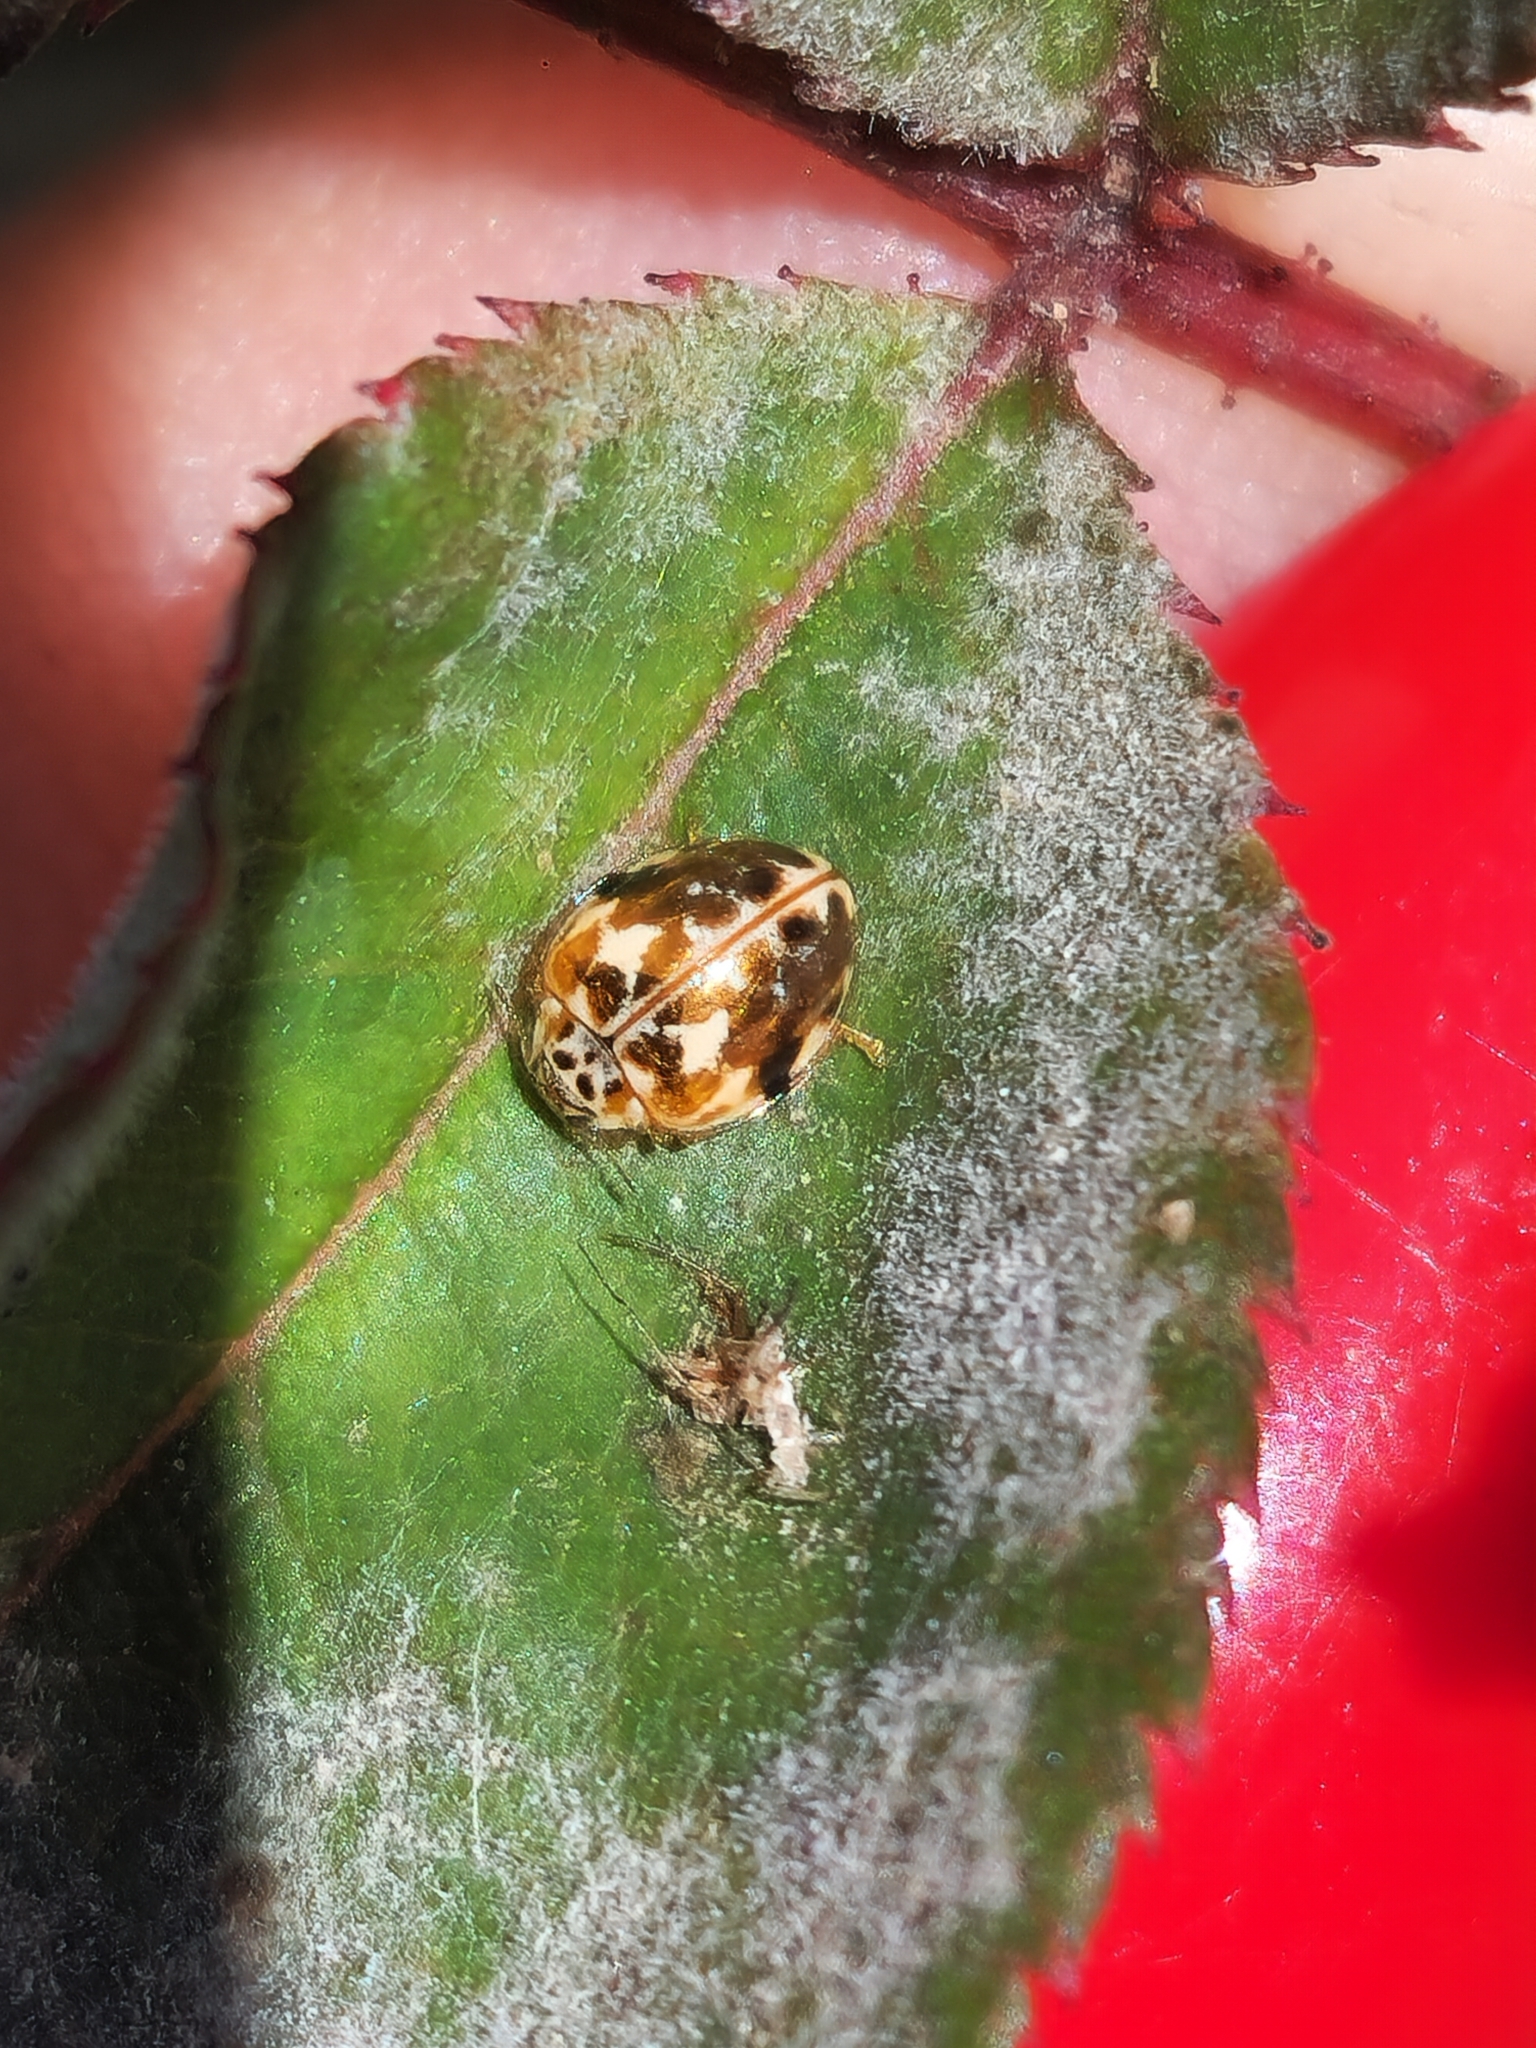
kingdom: Animalia
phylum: Arthropoda
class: Insecta
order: Coleoptera
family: Coccinellidae
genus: Psyllobora
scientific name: Psyllobora
